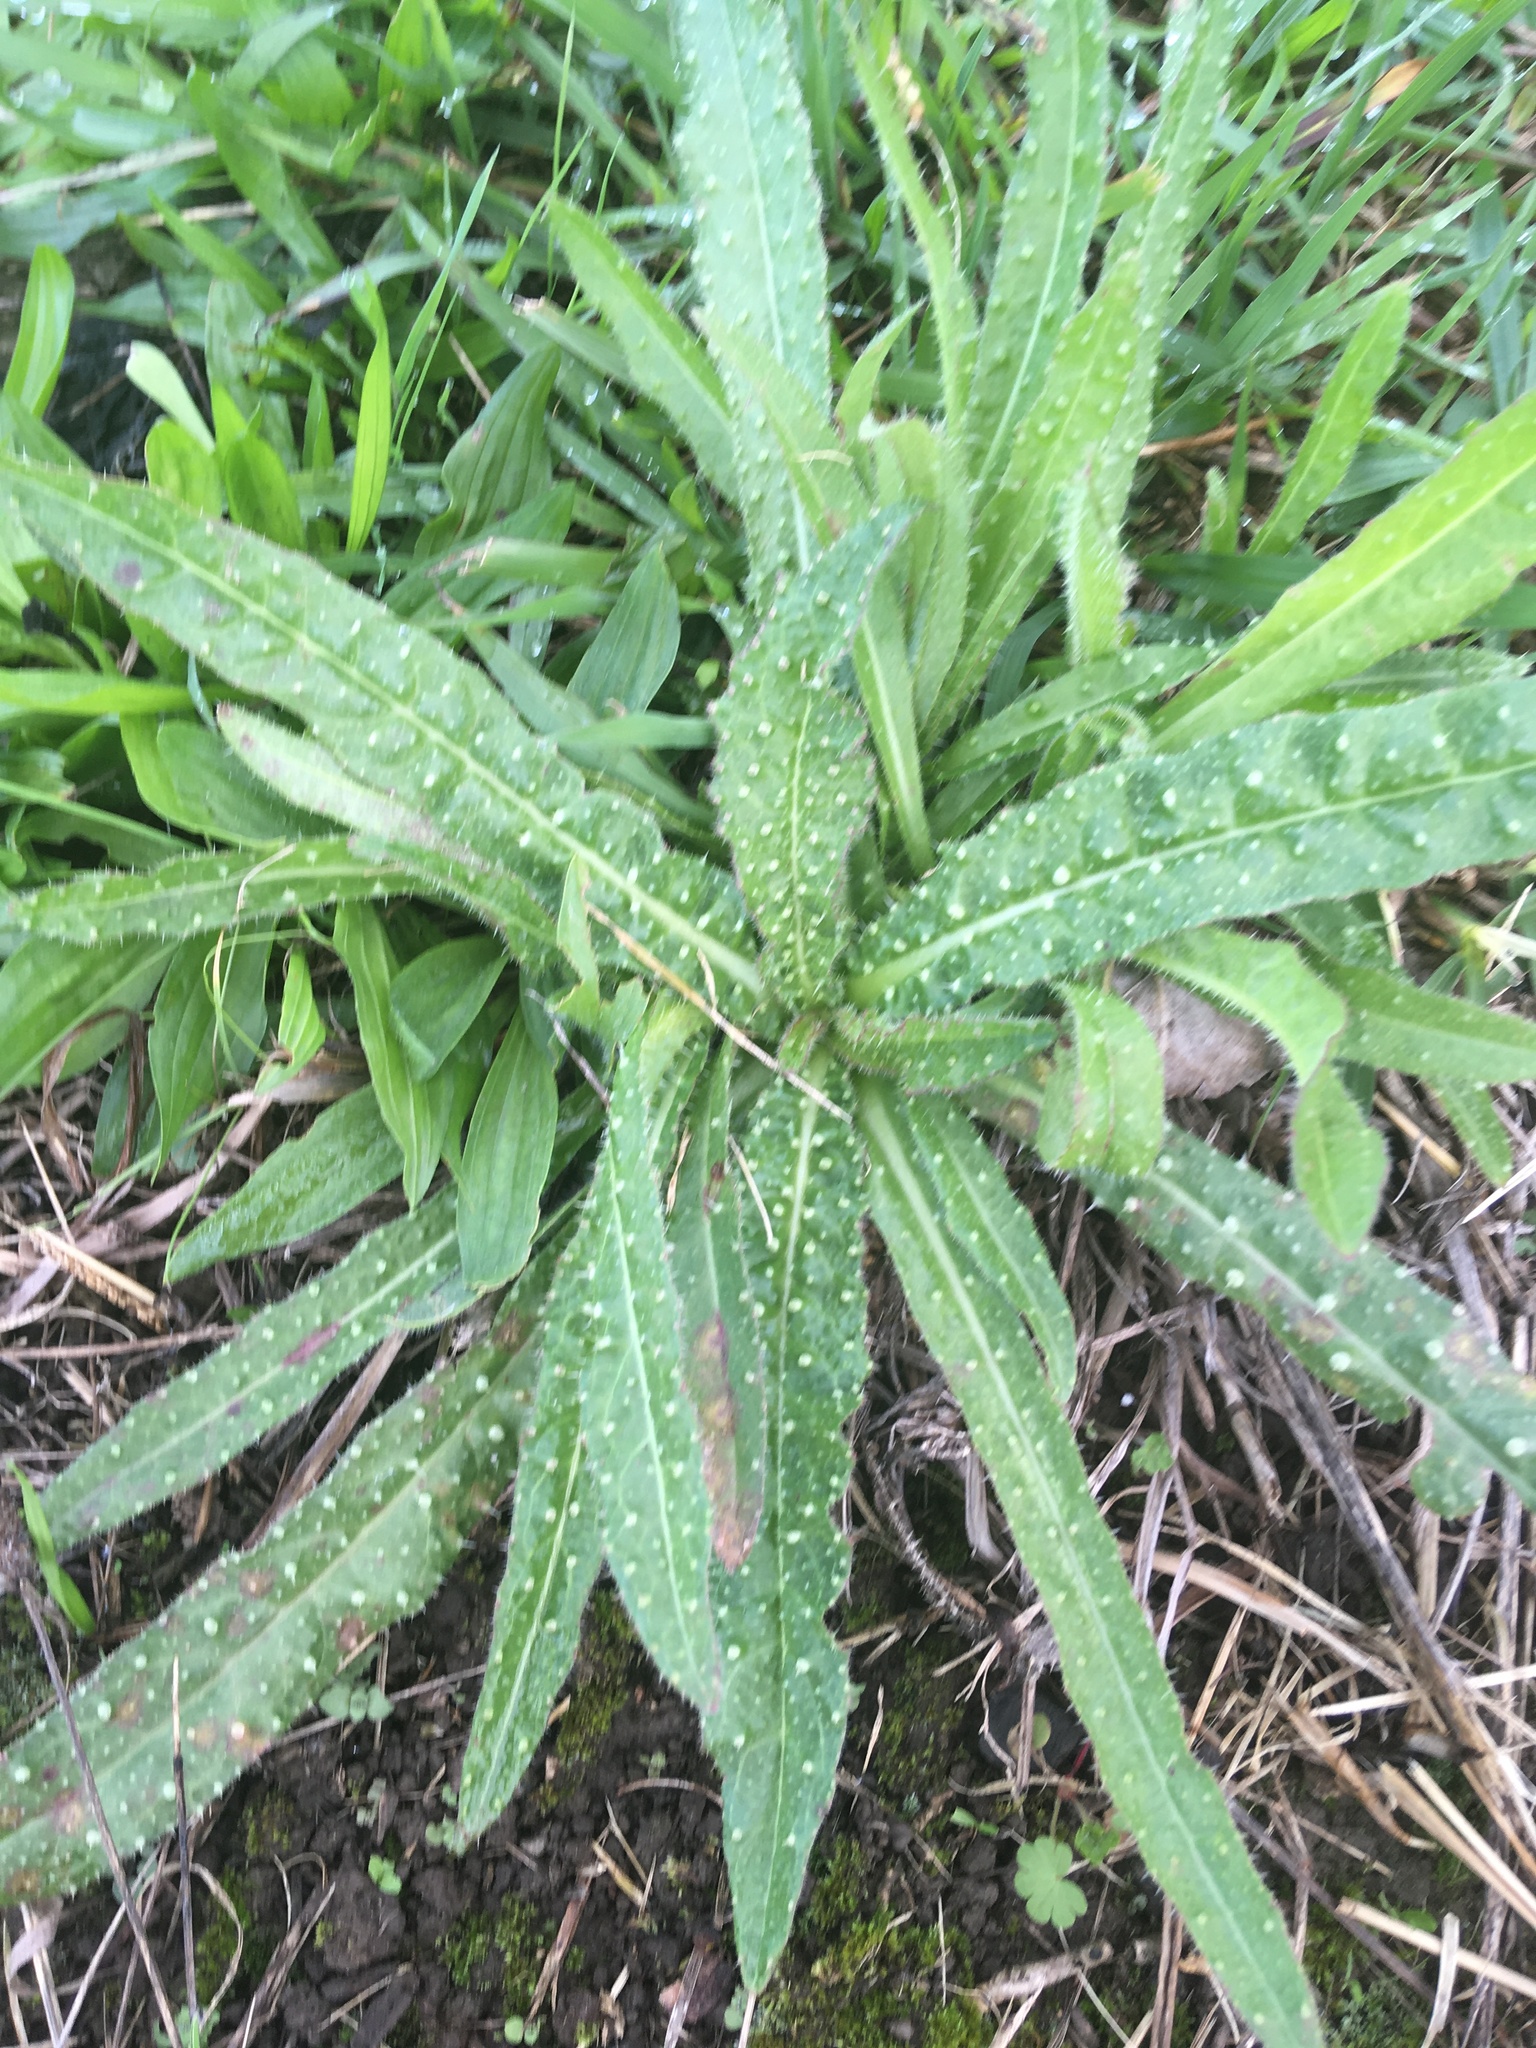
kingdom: Plantae
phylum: Tracheophyta
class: Magnoliopsida
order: Asterales
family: Asteraceae
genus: Helminthotheca
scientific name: Helminthotheca echioides
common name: Ox-tongue
